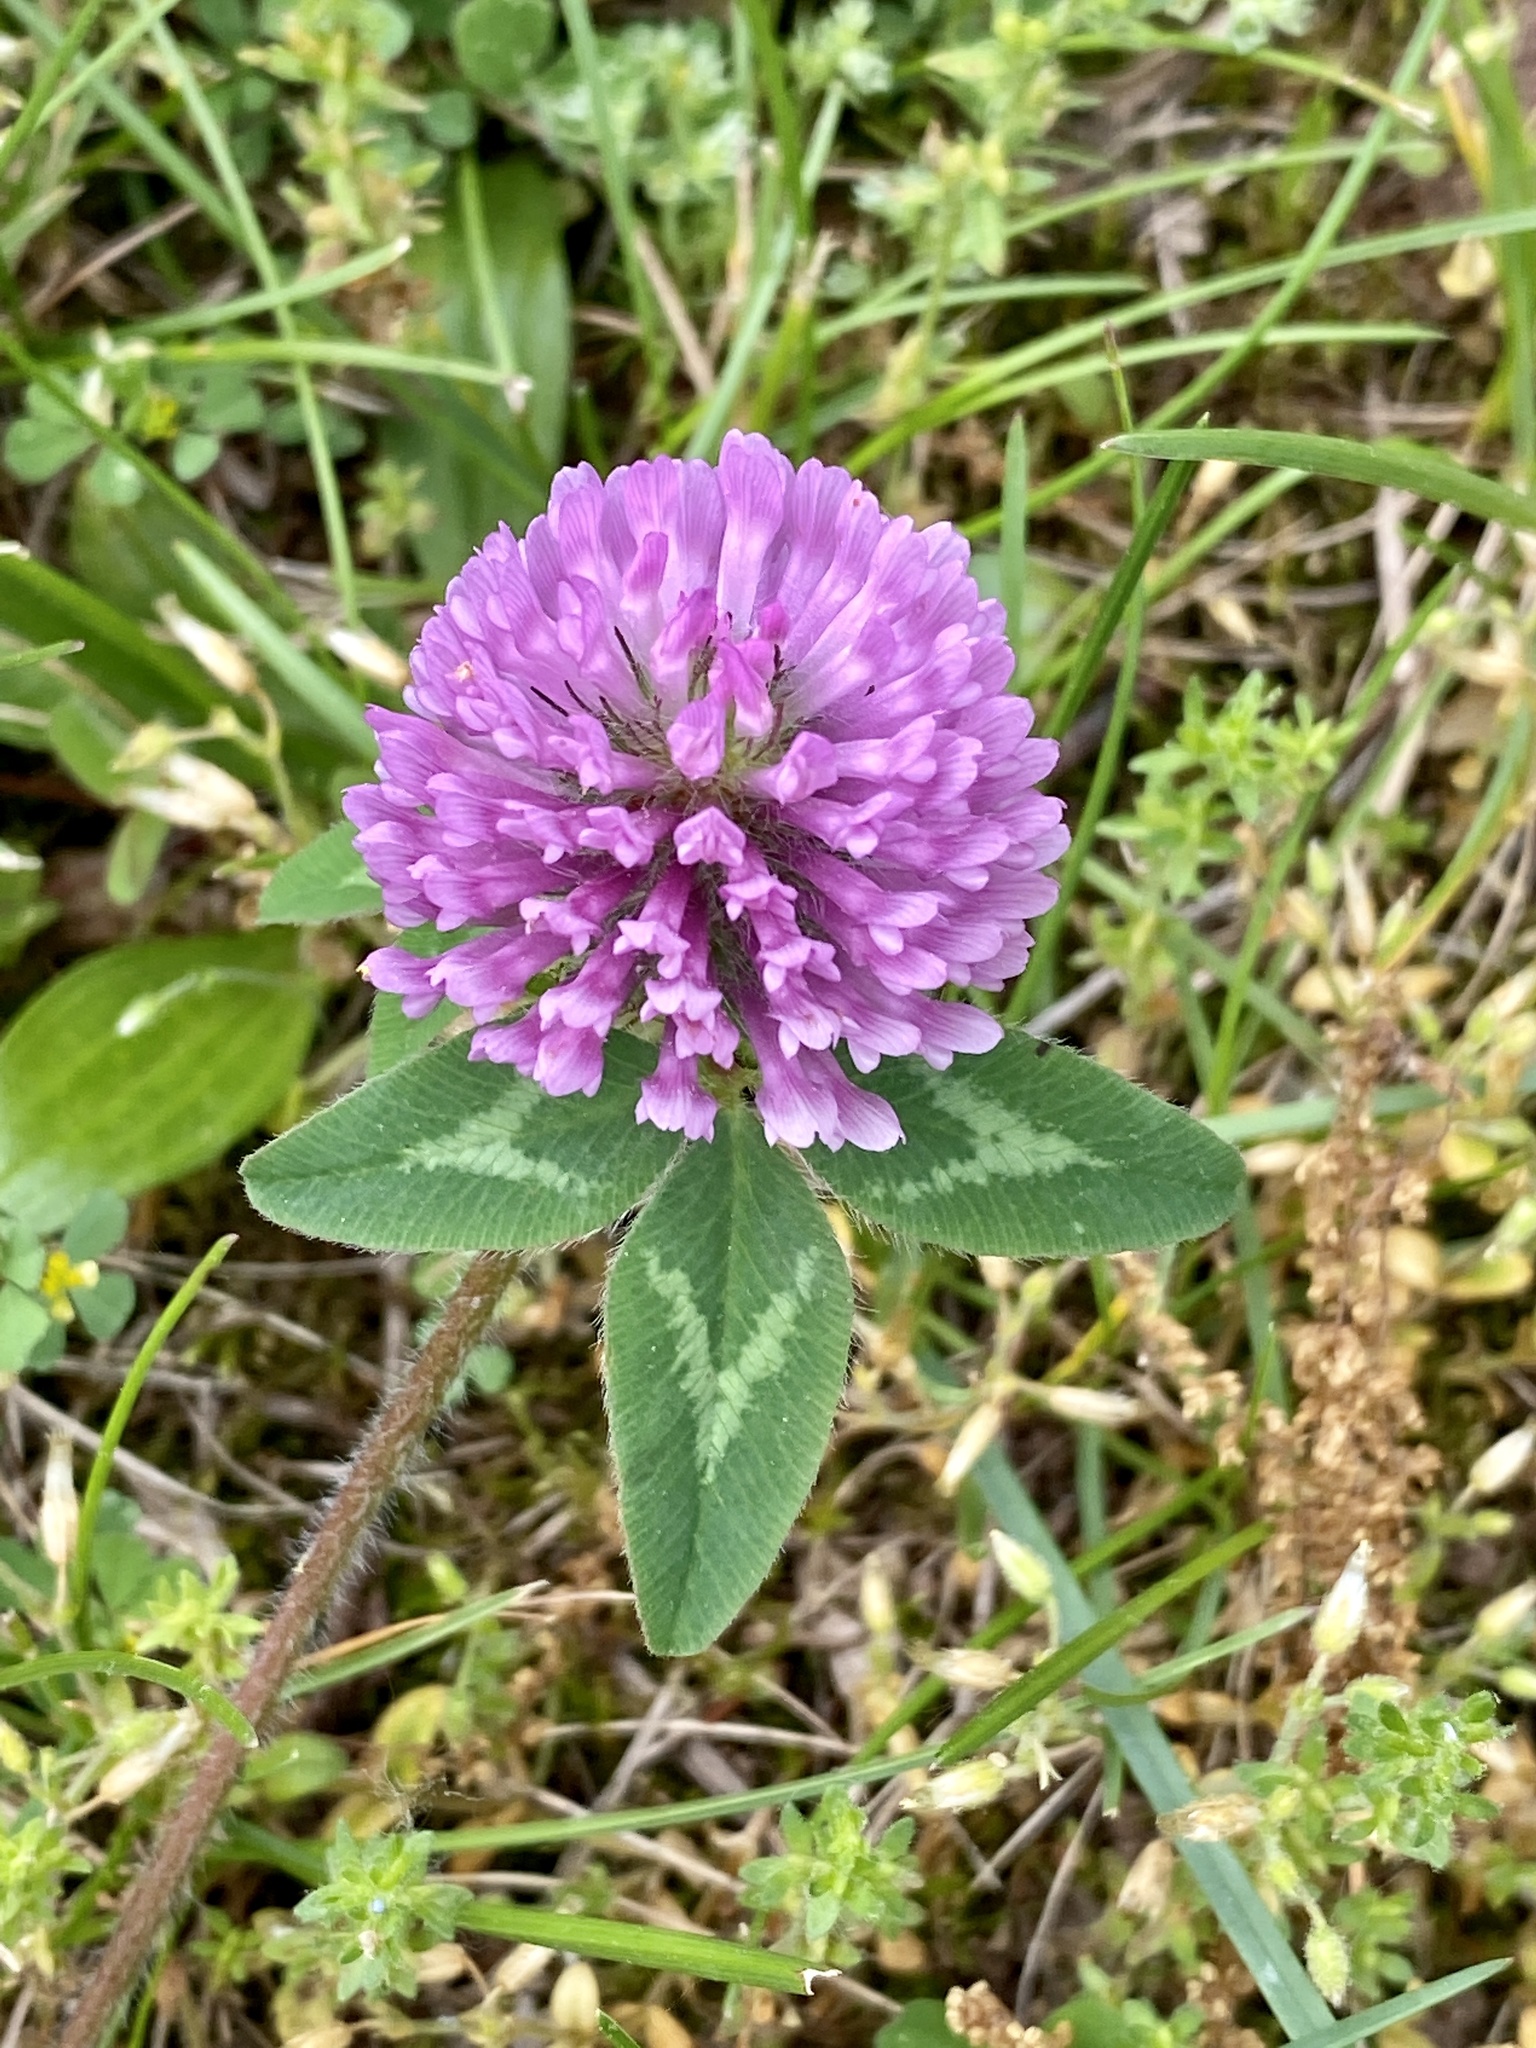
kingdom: Plantae
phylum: Tracheophyta
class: Magnoliopsida
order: Fabales
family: Fabaceae
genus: Trifolium
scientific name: Trifolium pratense
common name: Red clover
